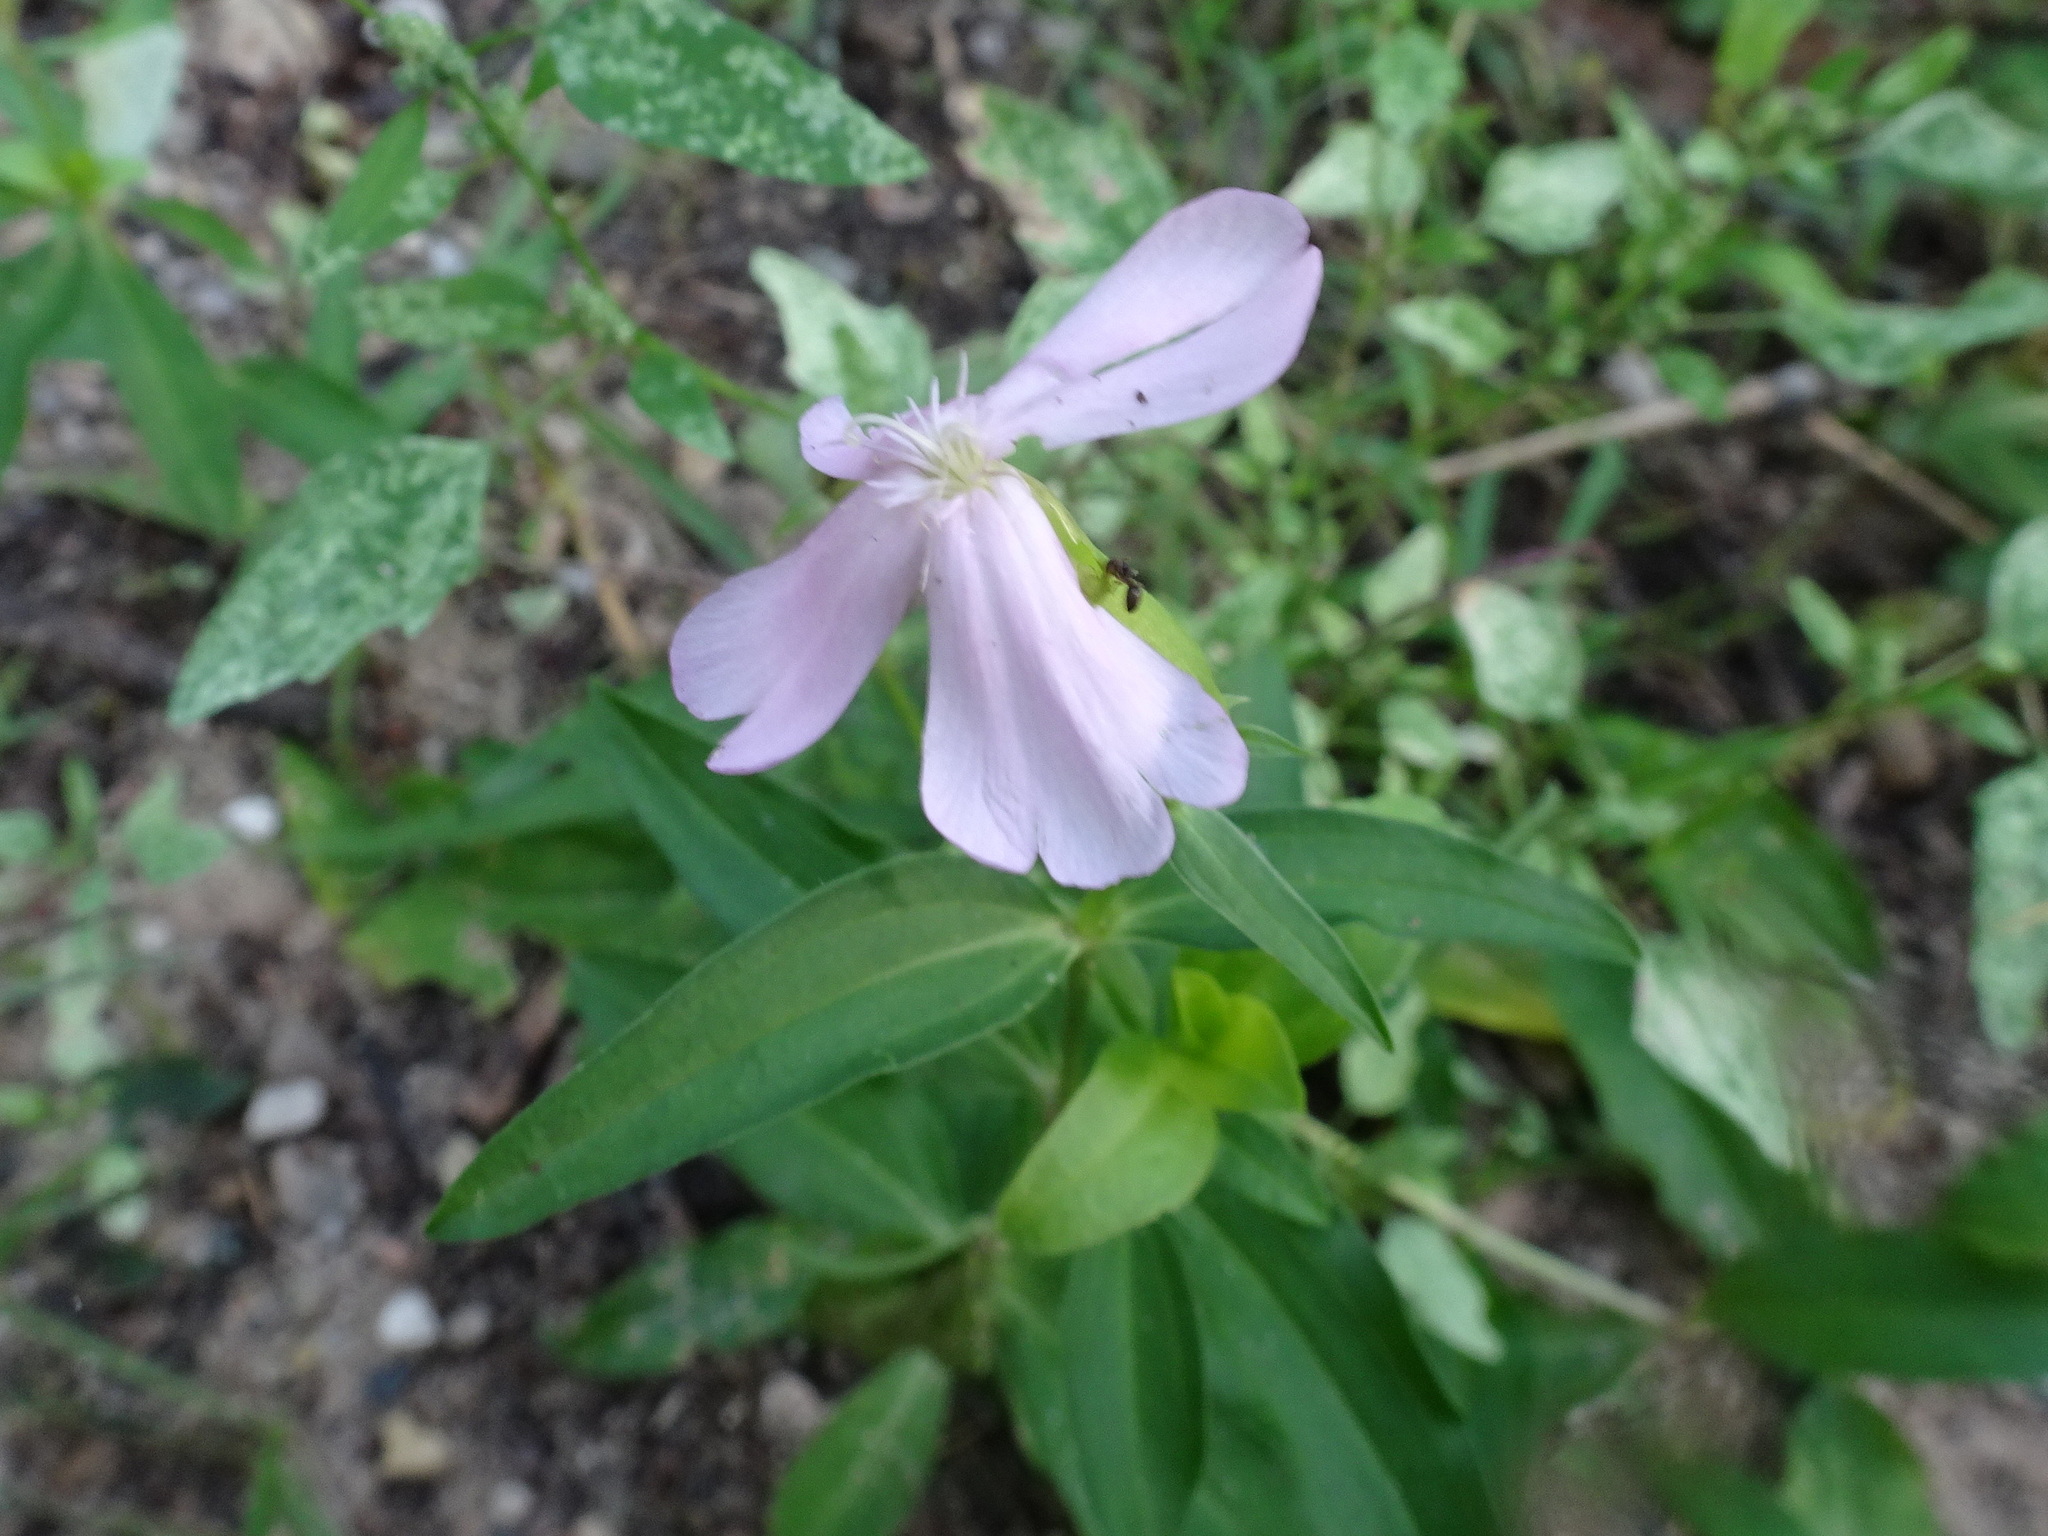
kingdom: Plantae
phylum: Tracheophyta
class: Magnoliopsida
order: Caryophyllales
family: Caryophyllaceae
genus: Saponaria
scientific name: Saponaria officinalis
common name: Soapwort
